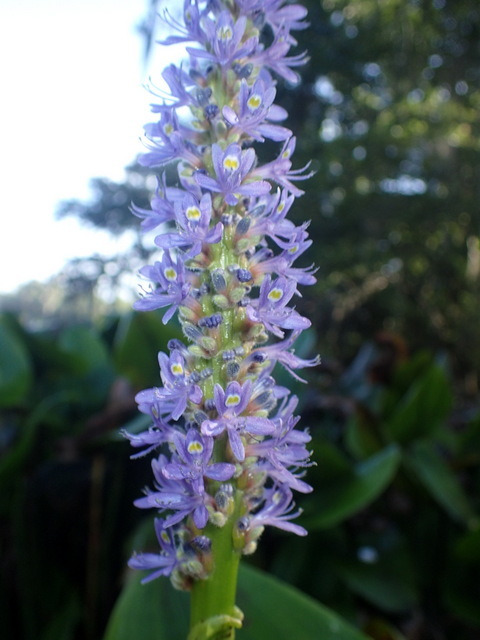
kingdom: Plantae
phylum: Tracheophyta
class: Liliopsida
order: Commelinales
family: Pontederiaceae
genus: Pontederia
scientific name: Pontederia cordata
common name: Pickerelweed
